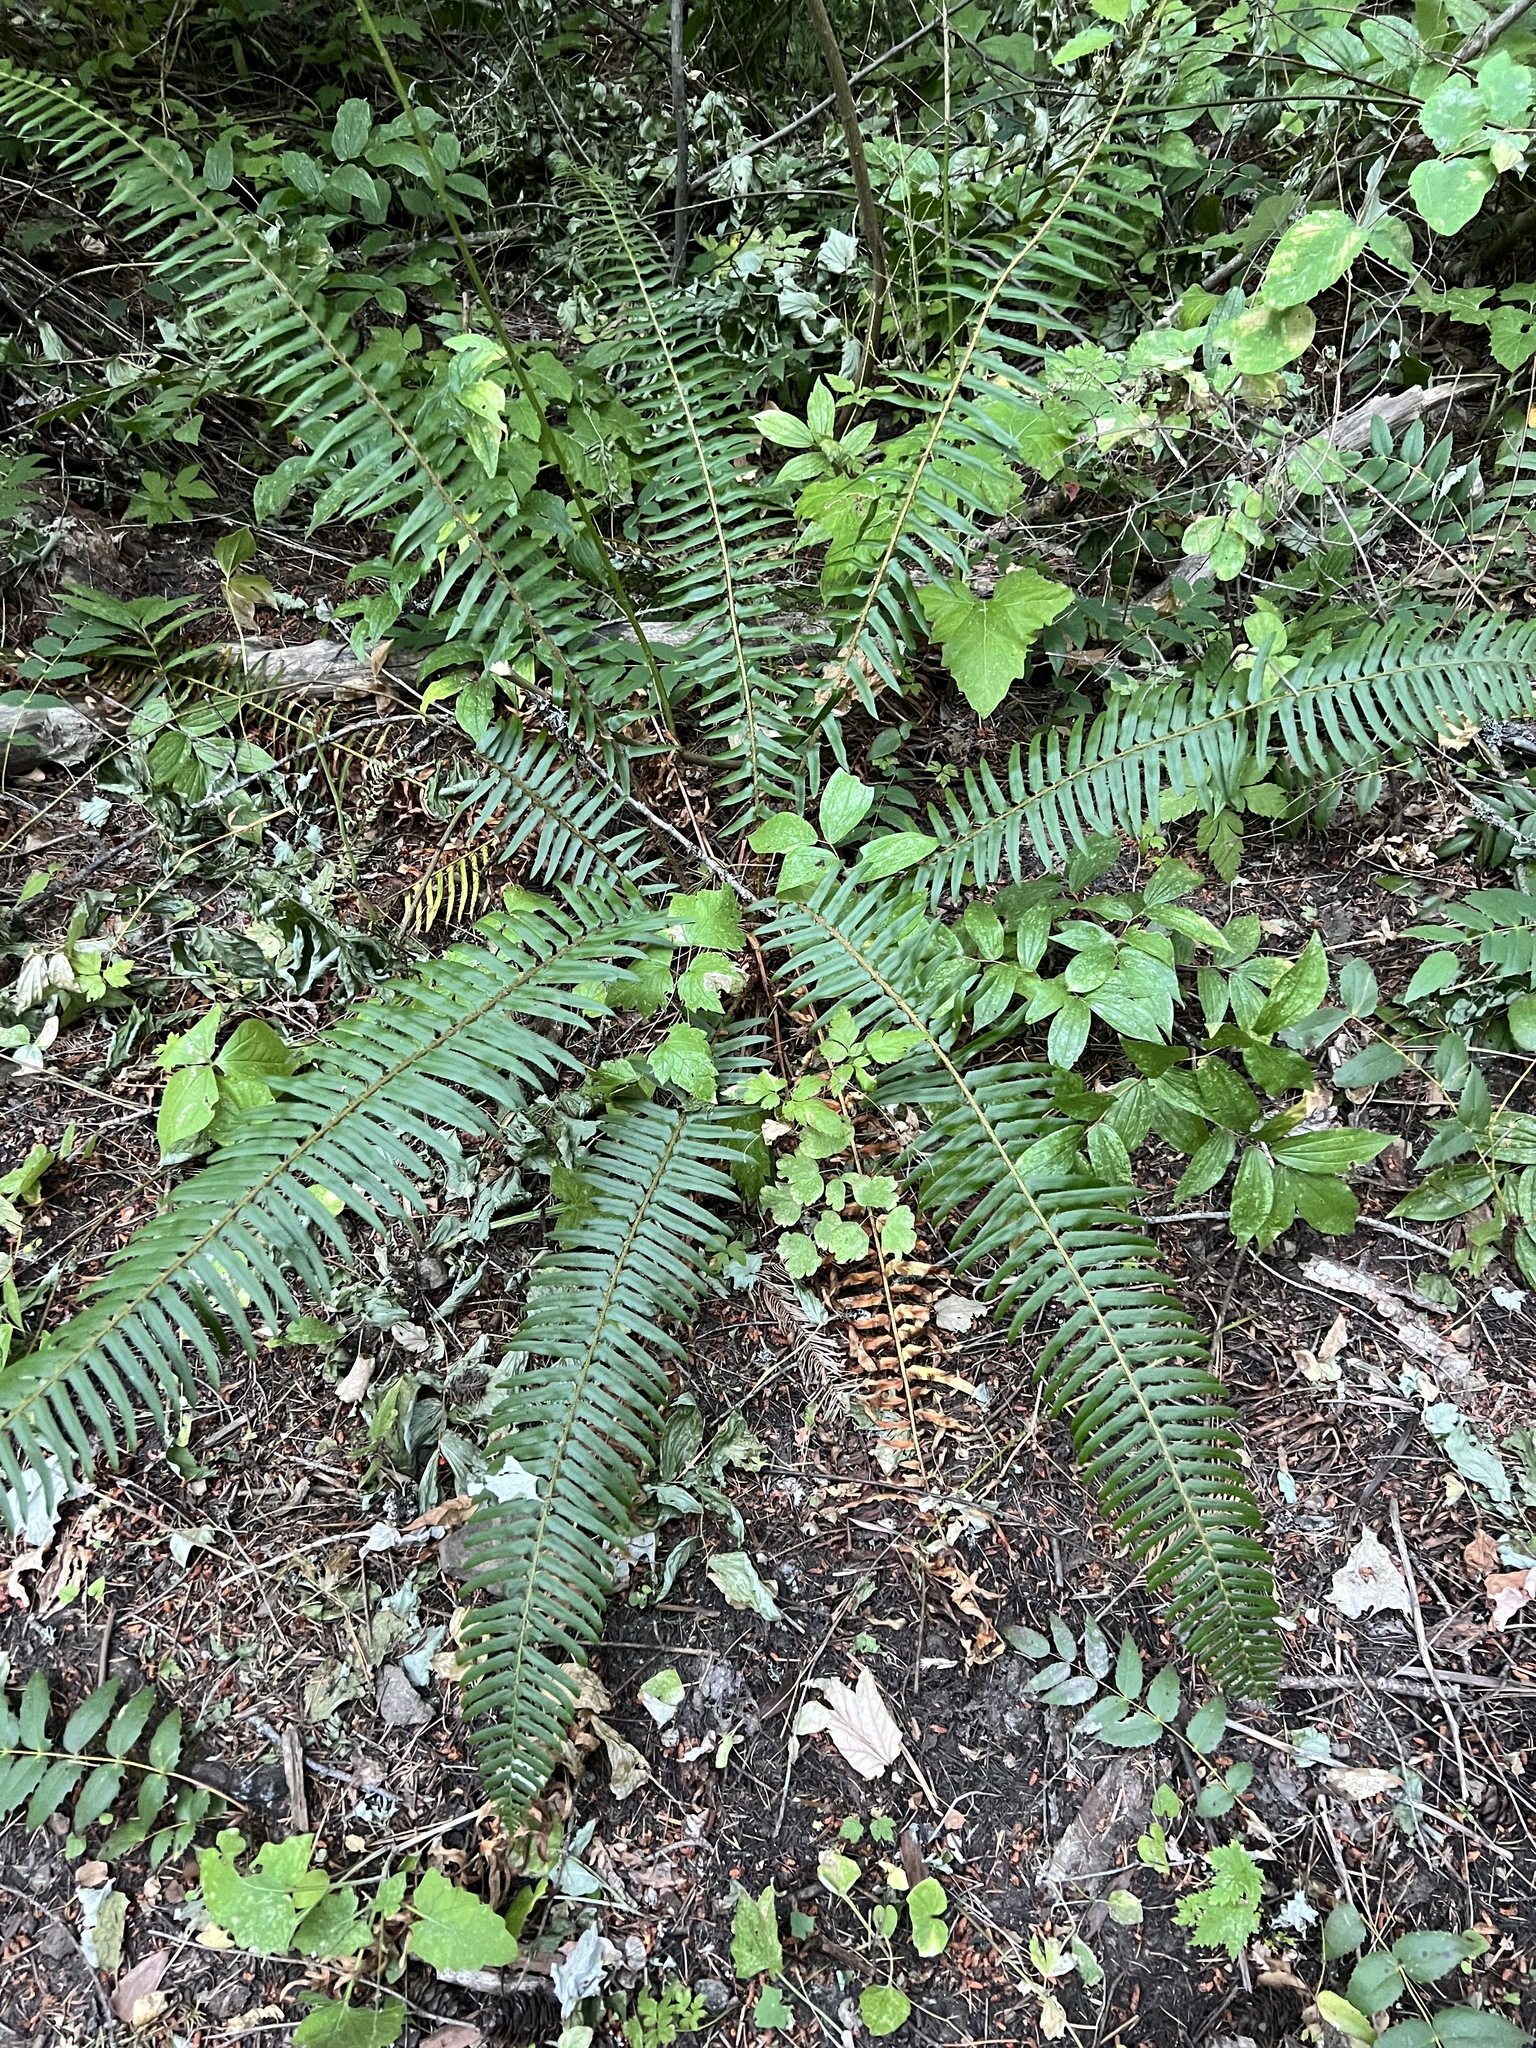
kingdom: Plantae
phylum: Tracheophyta
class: Polypodiopsida
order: Polypodiales
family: Dryopteridaceae
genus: Polystichum
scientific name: Polystichum munitum
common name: Western sword-fern
